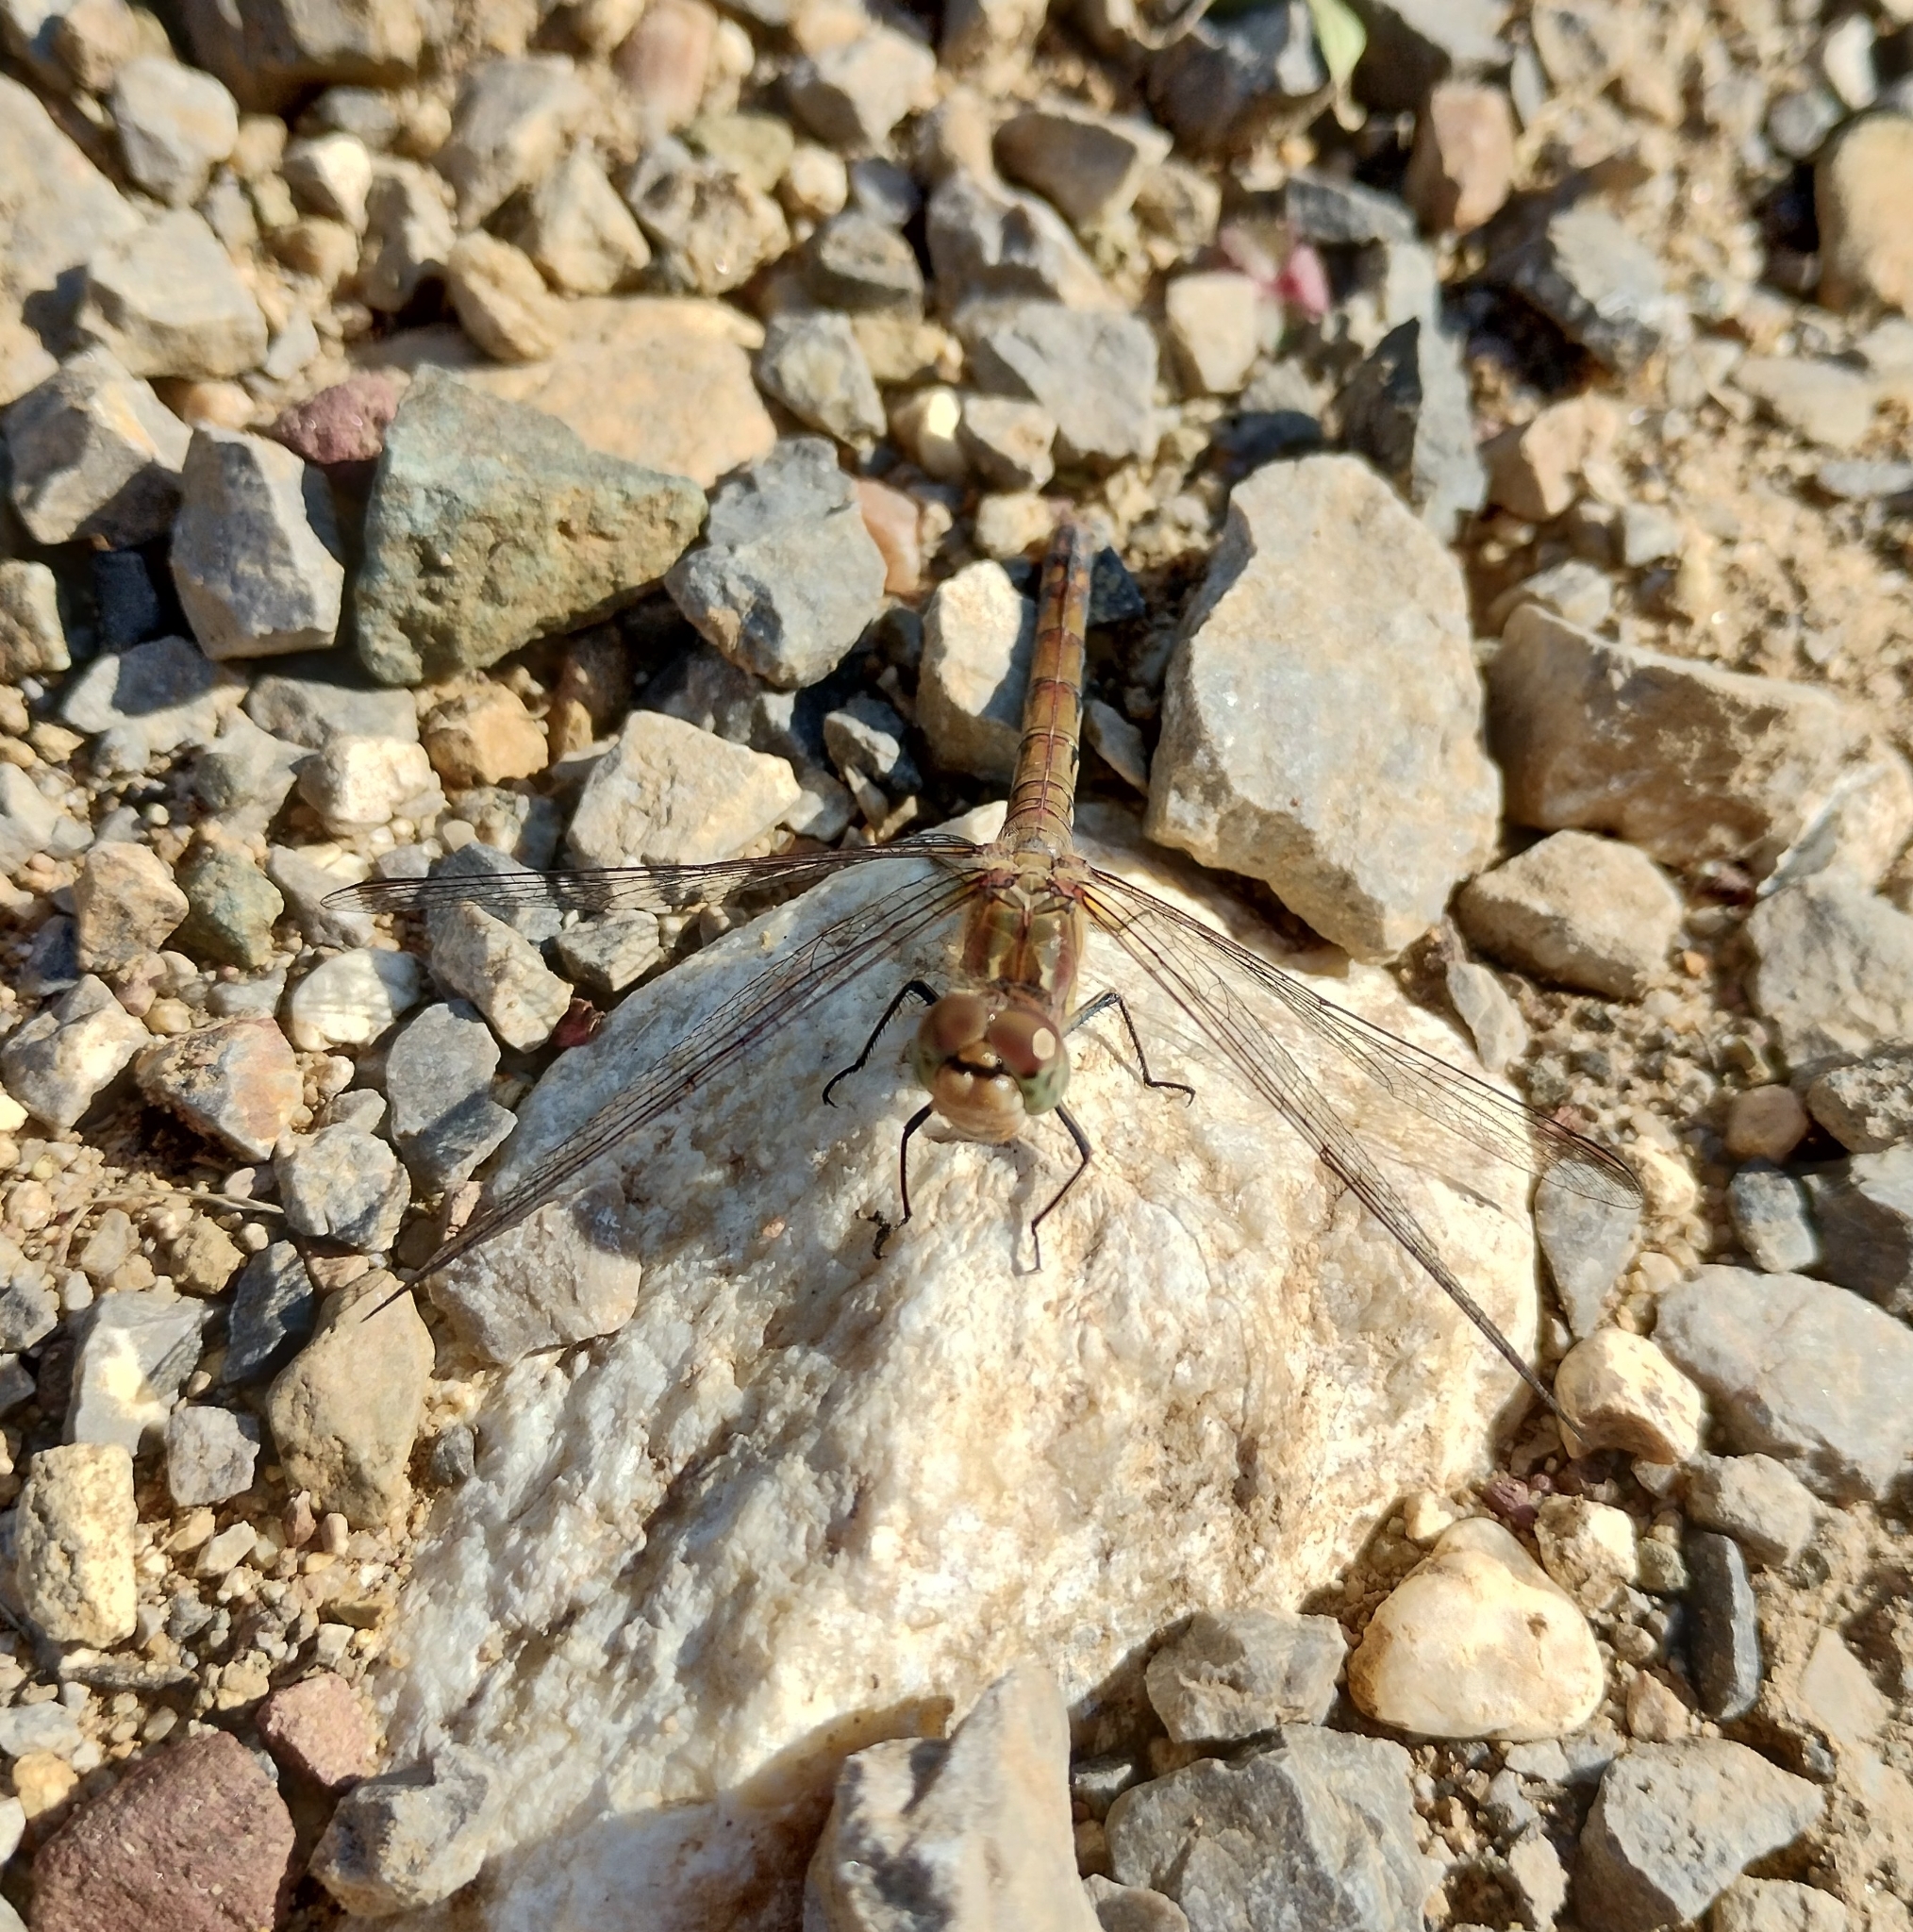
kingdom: Animalia
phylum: Arthropoda
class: Insecta
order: Odonata
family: Libellulidae
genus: Sympetrum
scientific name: Sympetrum striolatum
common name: Common darter
